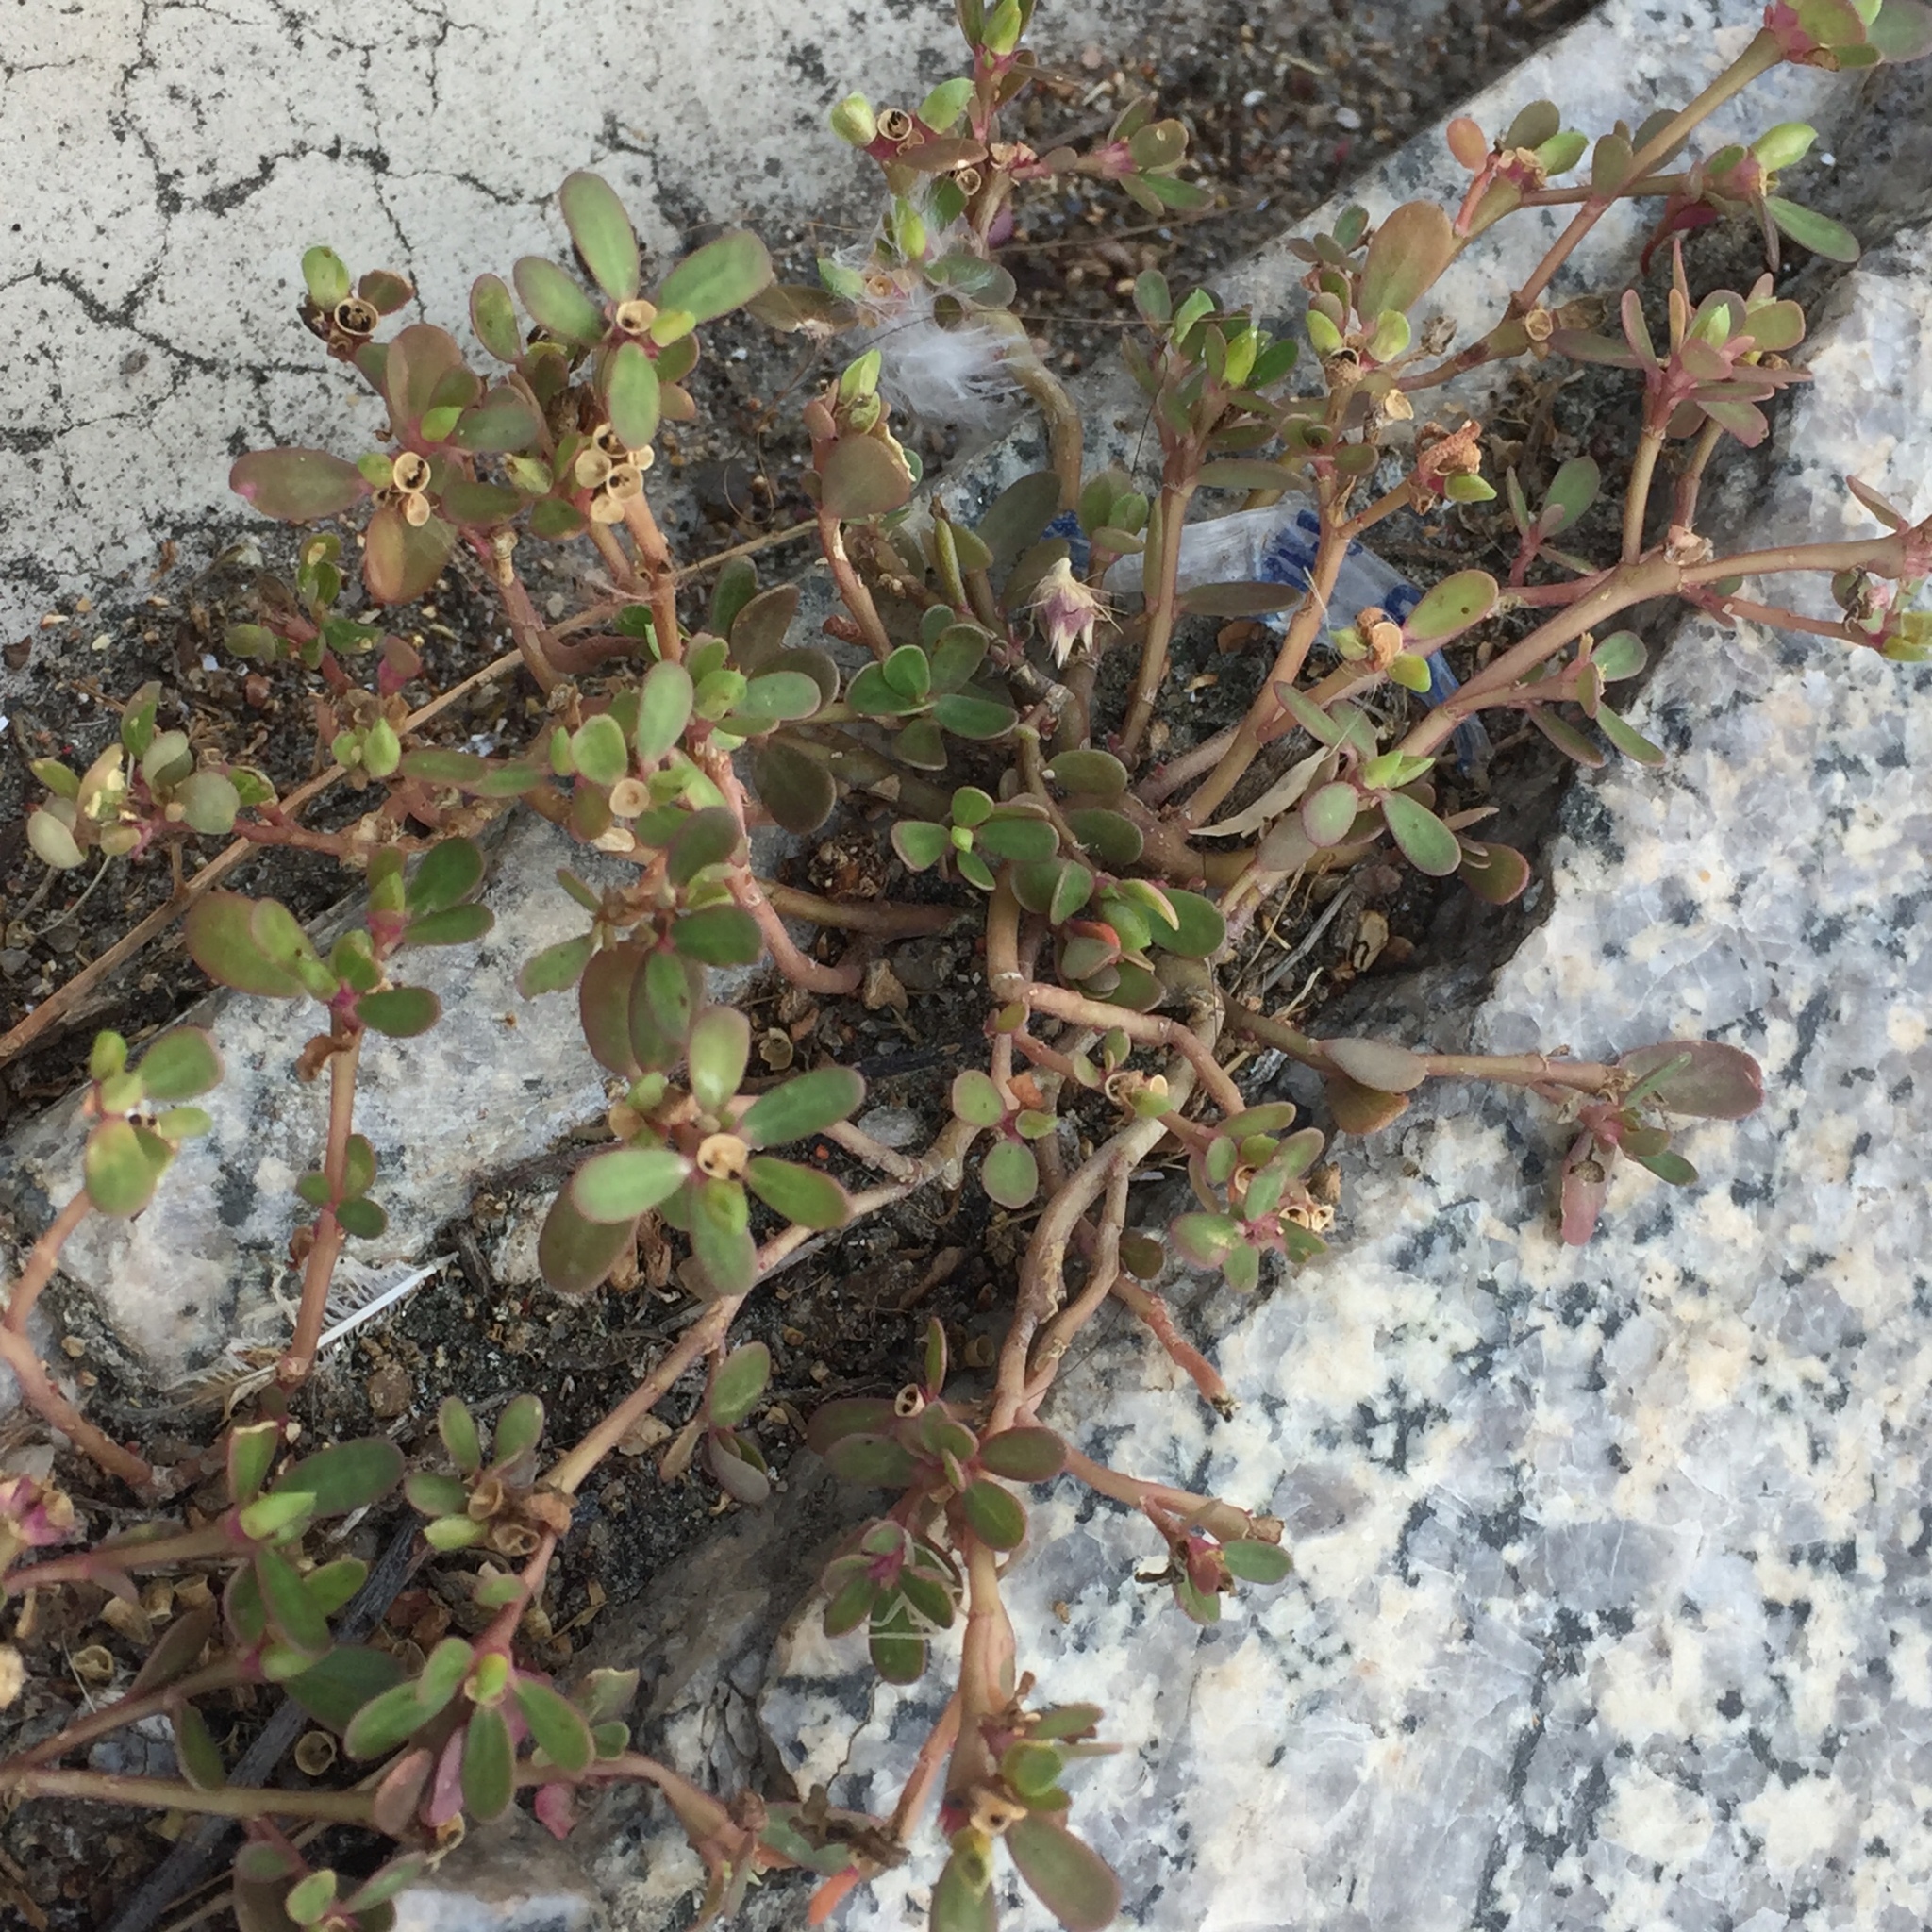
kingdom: Plantae
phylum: Tracheophyta
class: Magnoliopsida
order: Caryophyllales
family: Portulacaceae
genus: Portulaca
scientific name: Portulaca oleracea
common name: Common purslane
